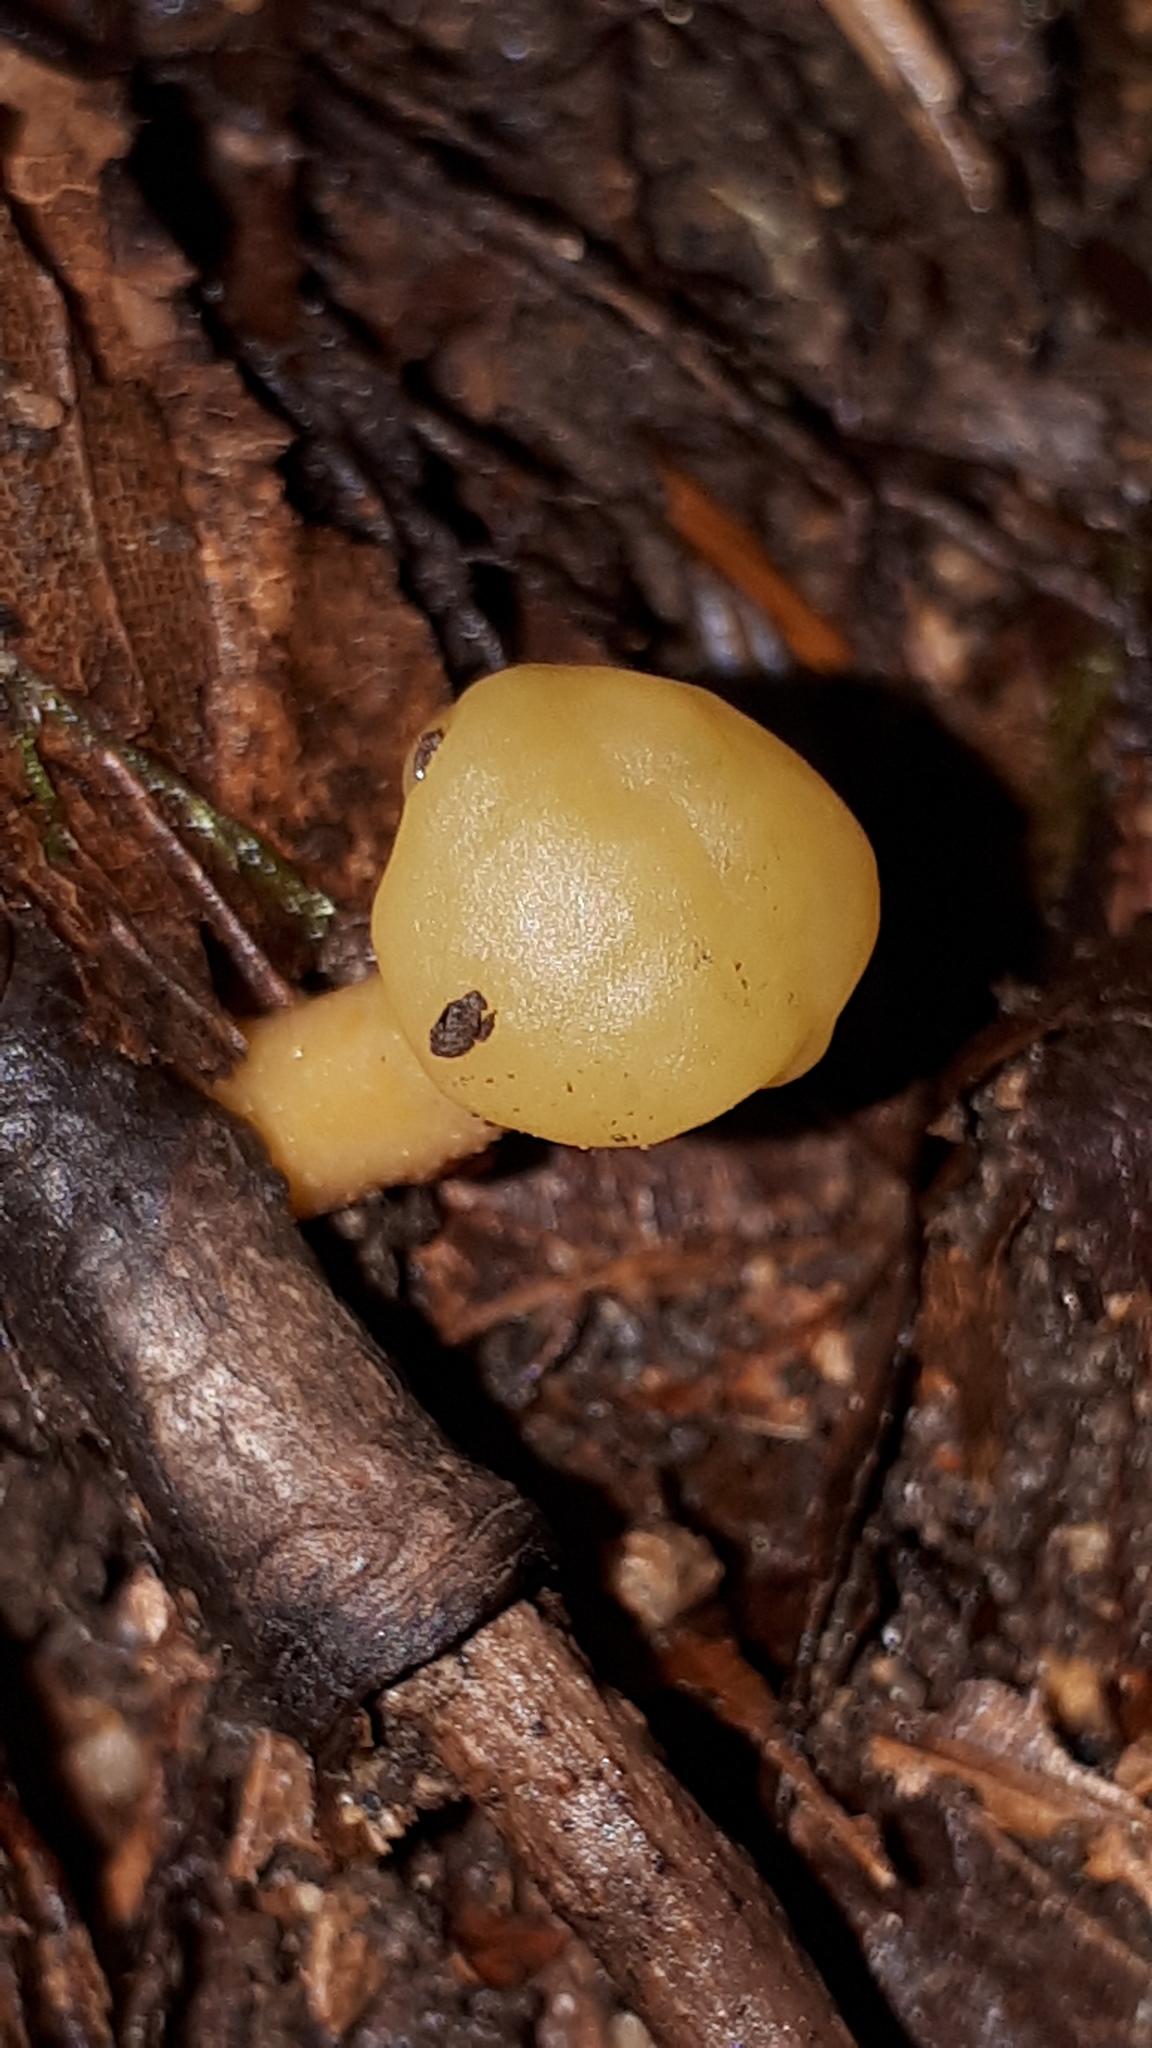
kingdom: Fungi
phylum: Ascomycota
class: Leotiomycetes
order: Leotiales
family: Leotiaceae
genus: Leotia
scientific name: Leotia lubrica
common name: Jellybaby
